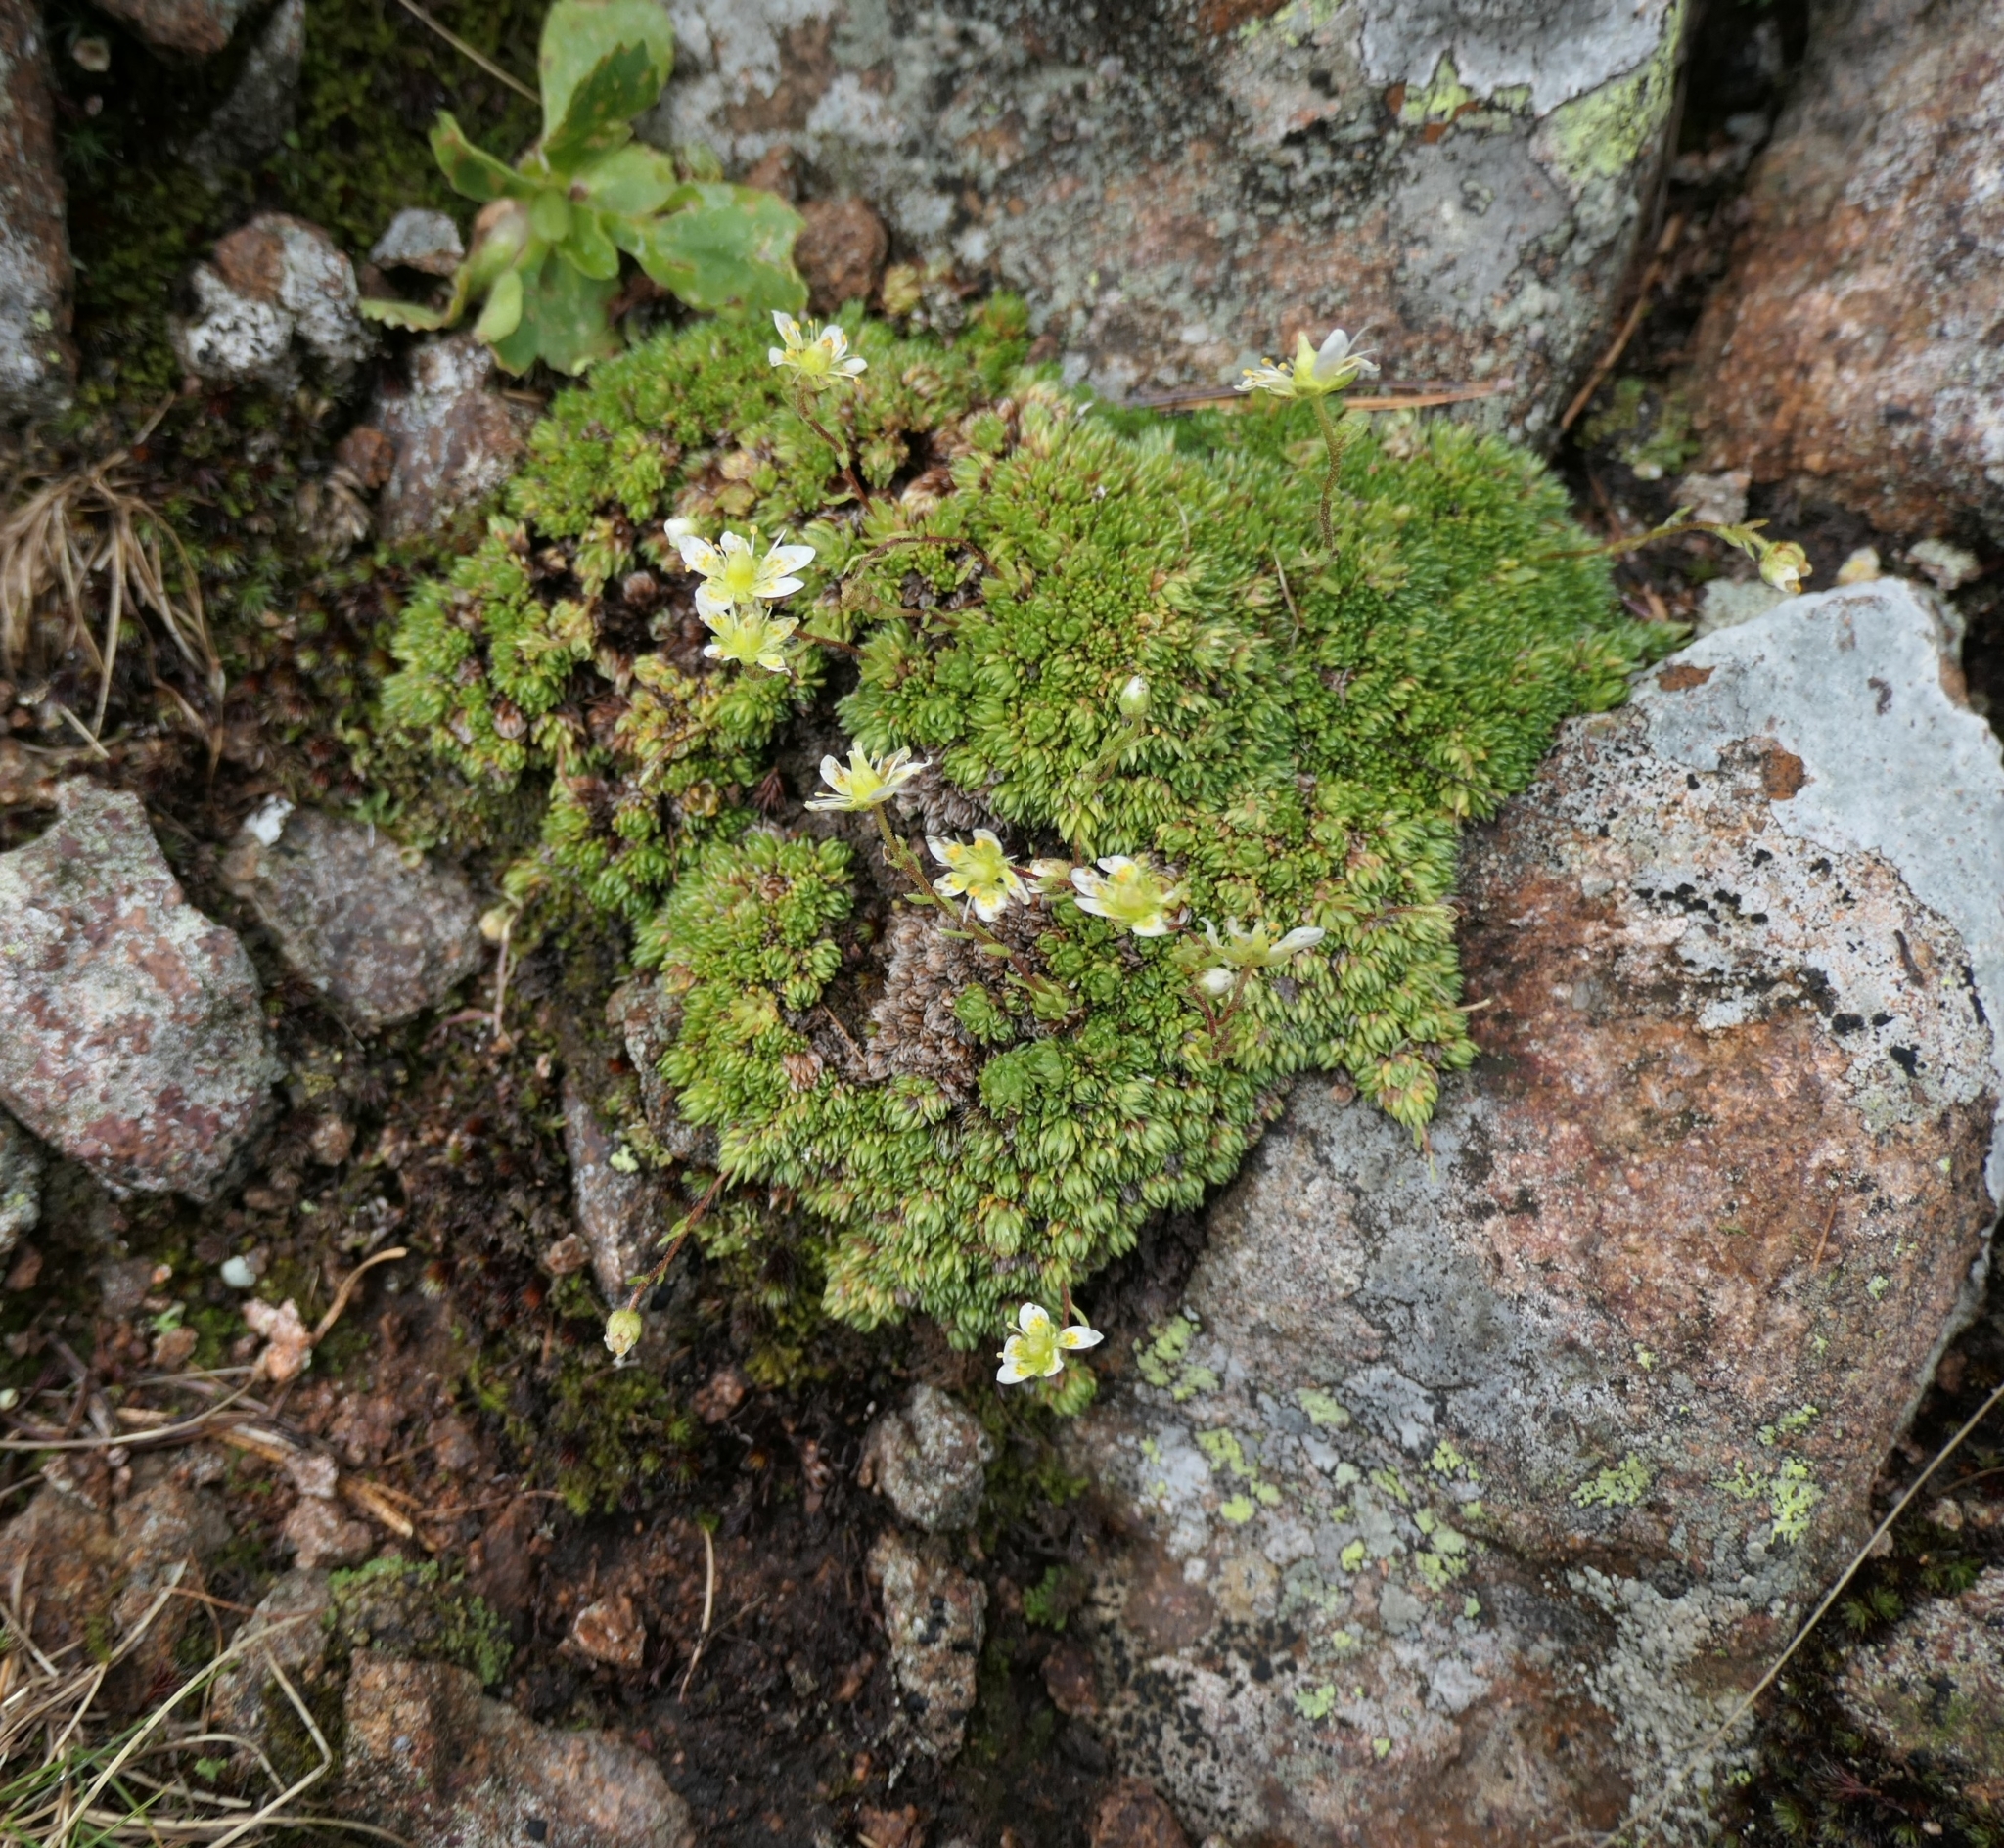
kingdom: Plantae
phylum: Tracheophyta
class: Magnoliopsida
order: Saxifragales
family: Saxifragaceae
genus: Saxifraga
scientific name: Saxifraga bryoides
